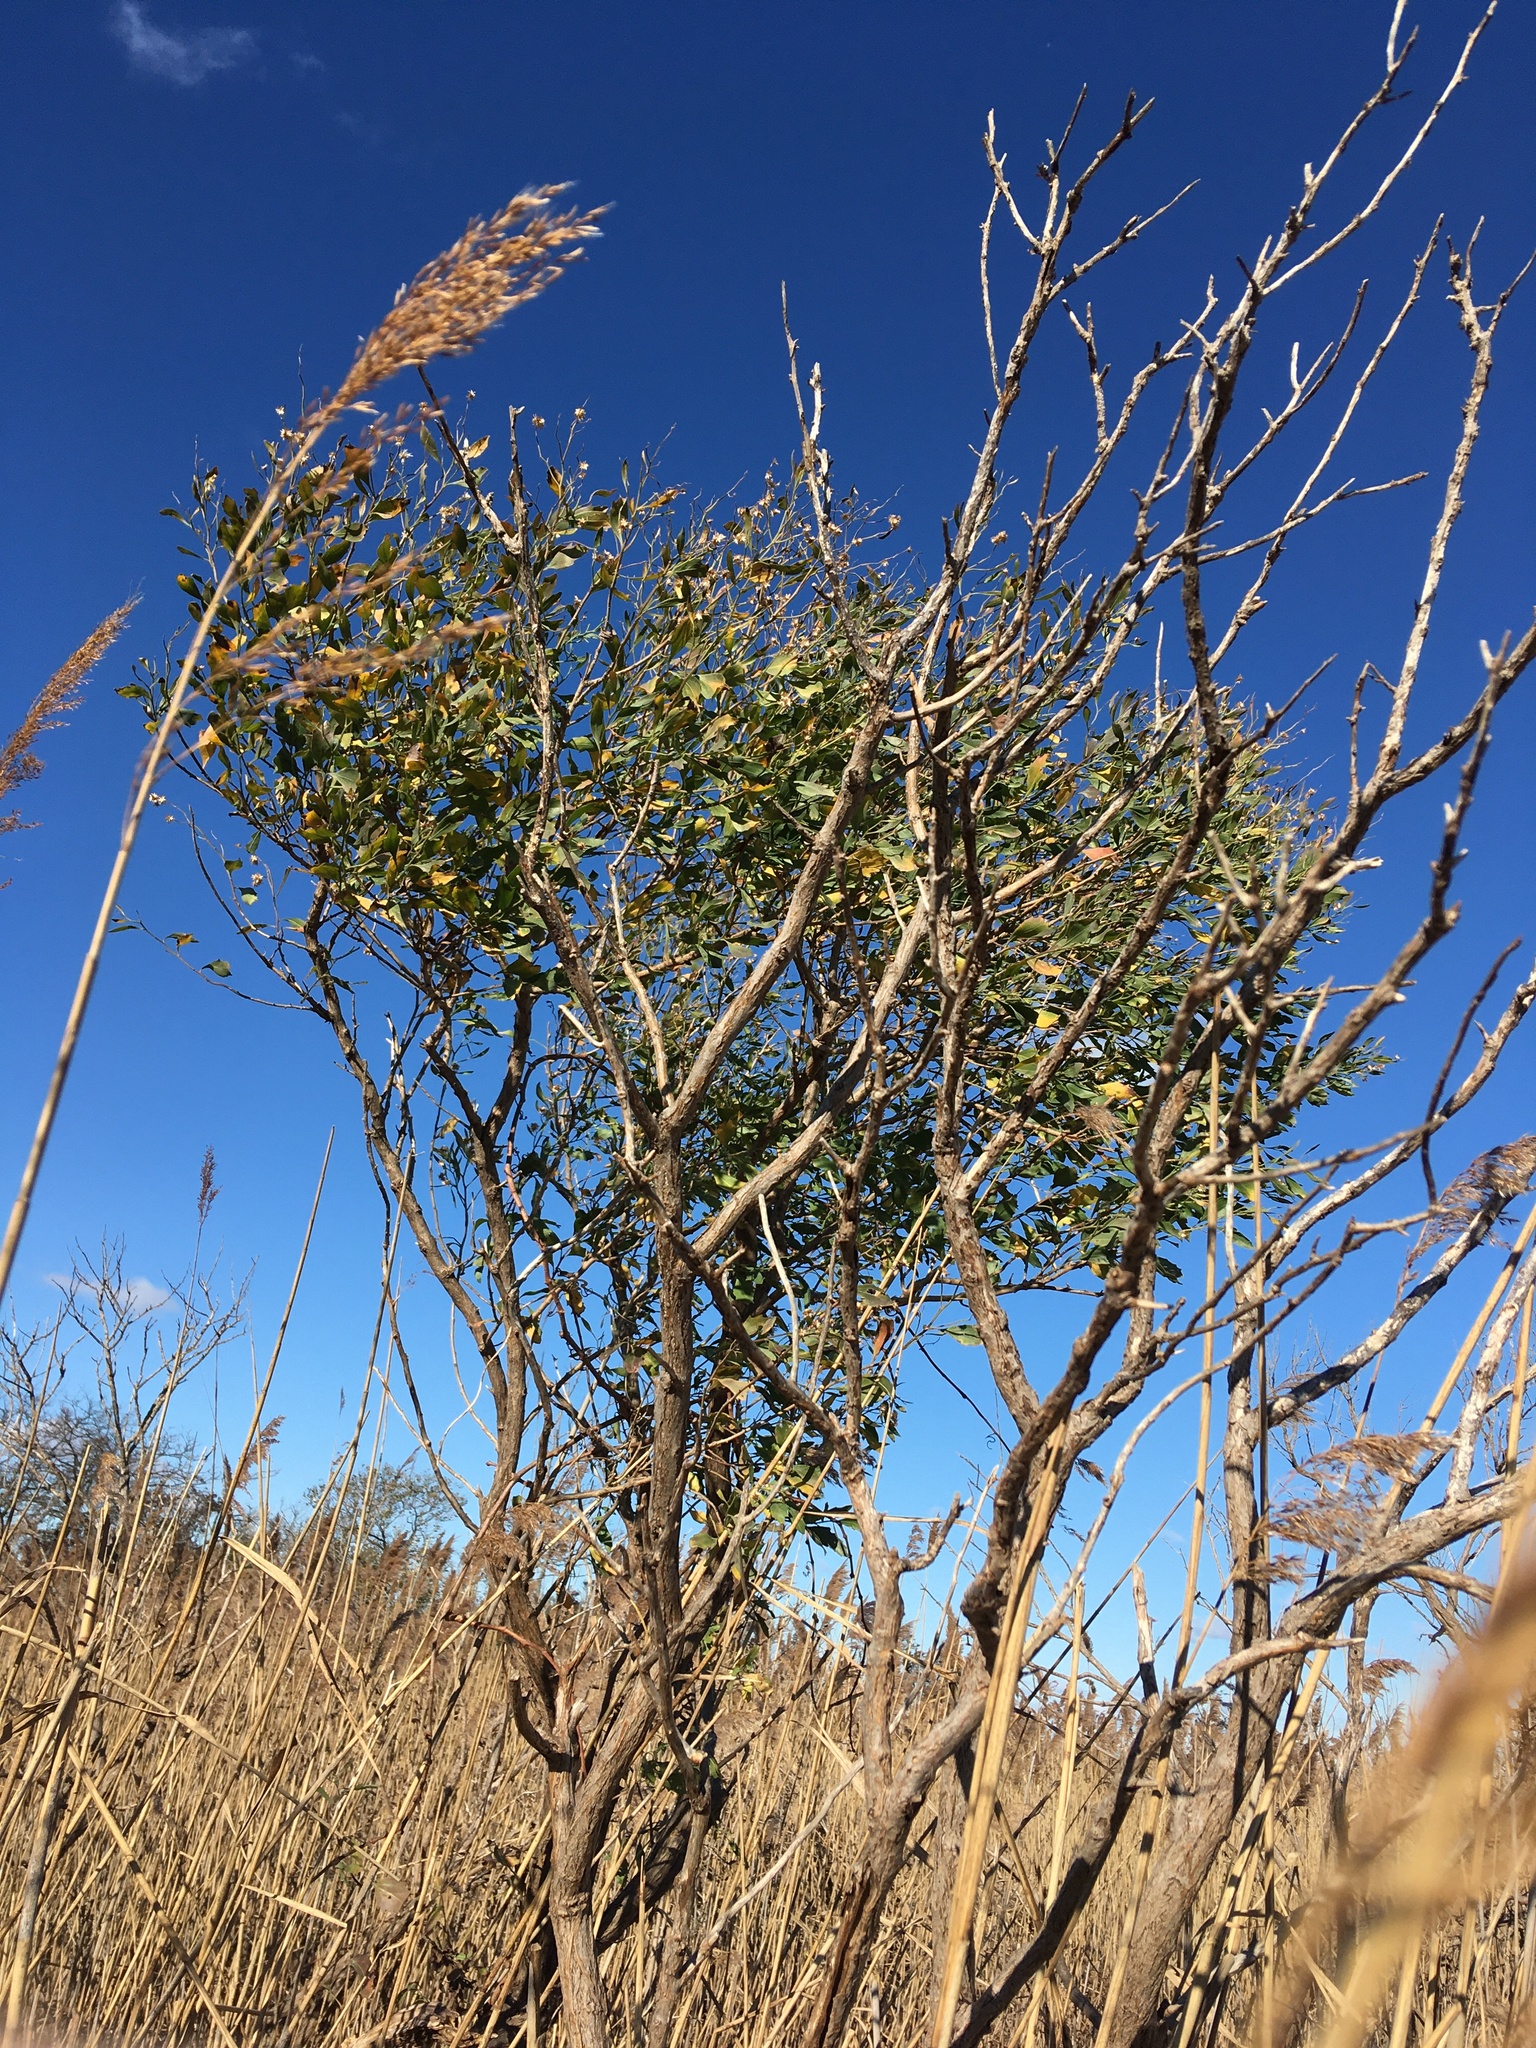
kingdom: Plantae
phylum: Tracheophyta
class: Magnoliopsida
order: Asterales
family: Asteraceae
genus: Baccharis
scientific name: Baccharis halimifolia
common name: Eastern baccharis
